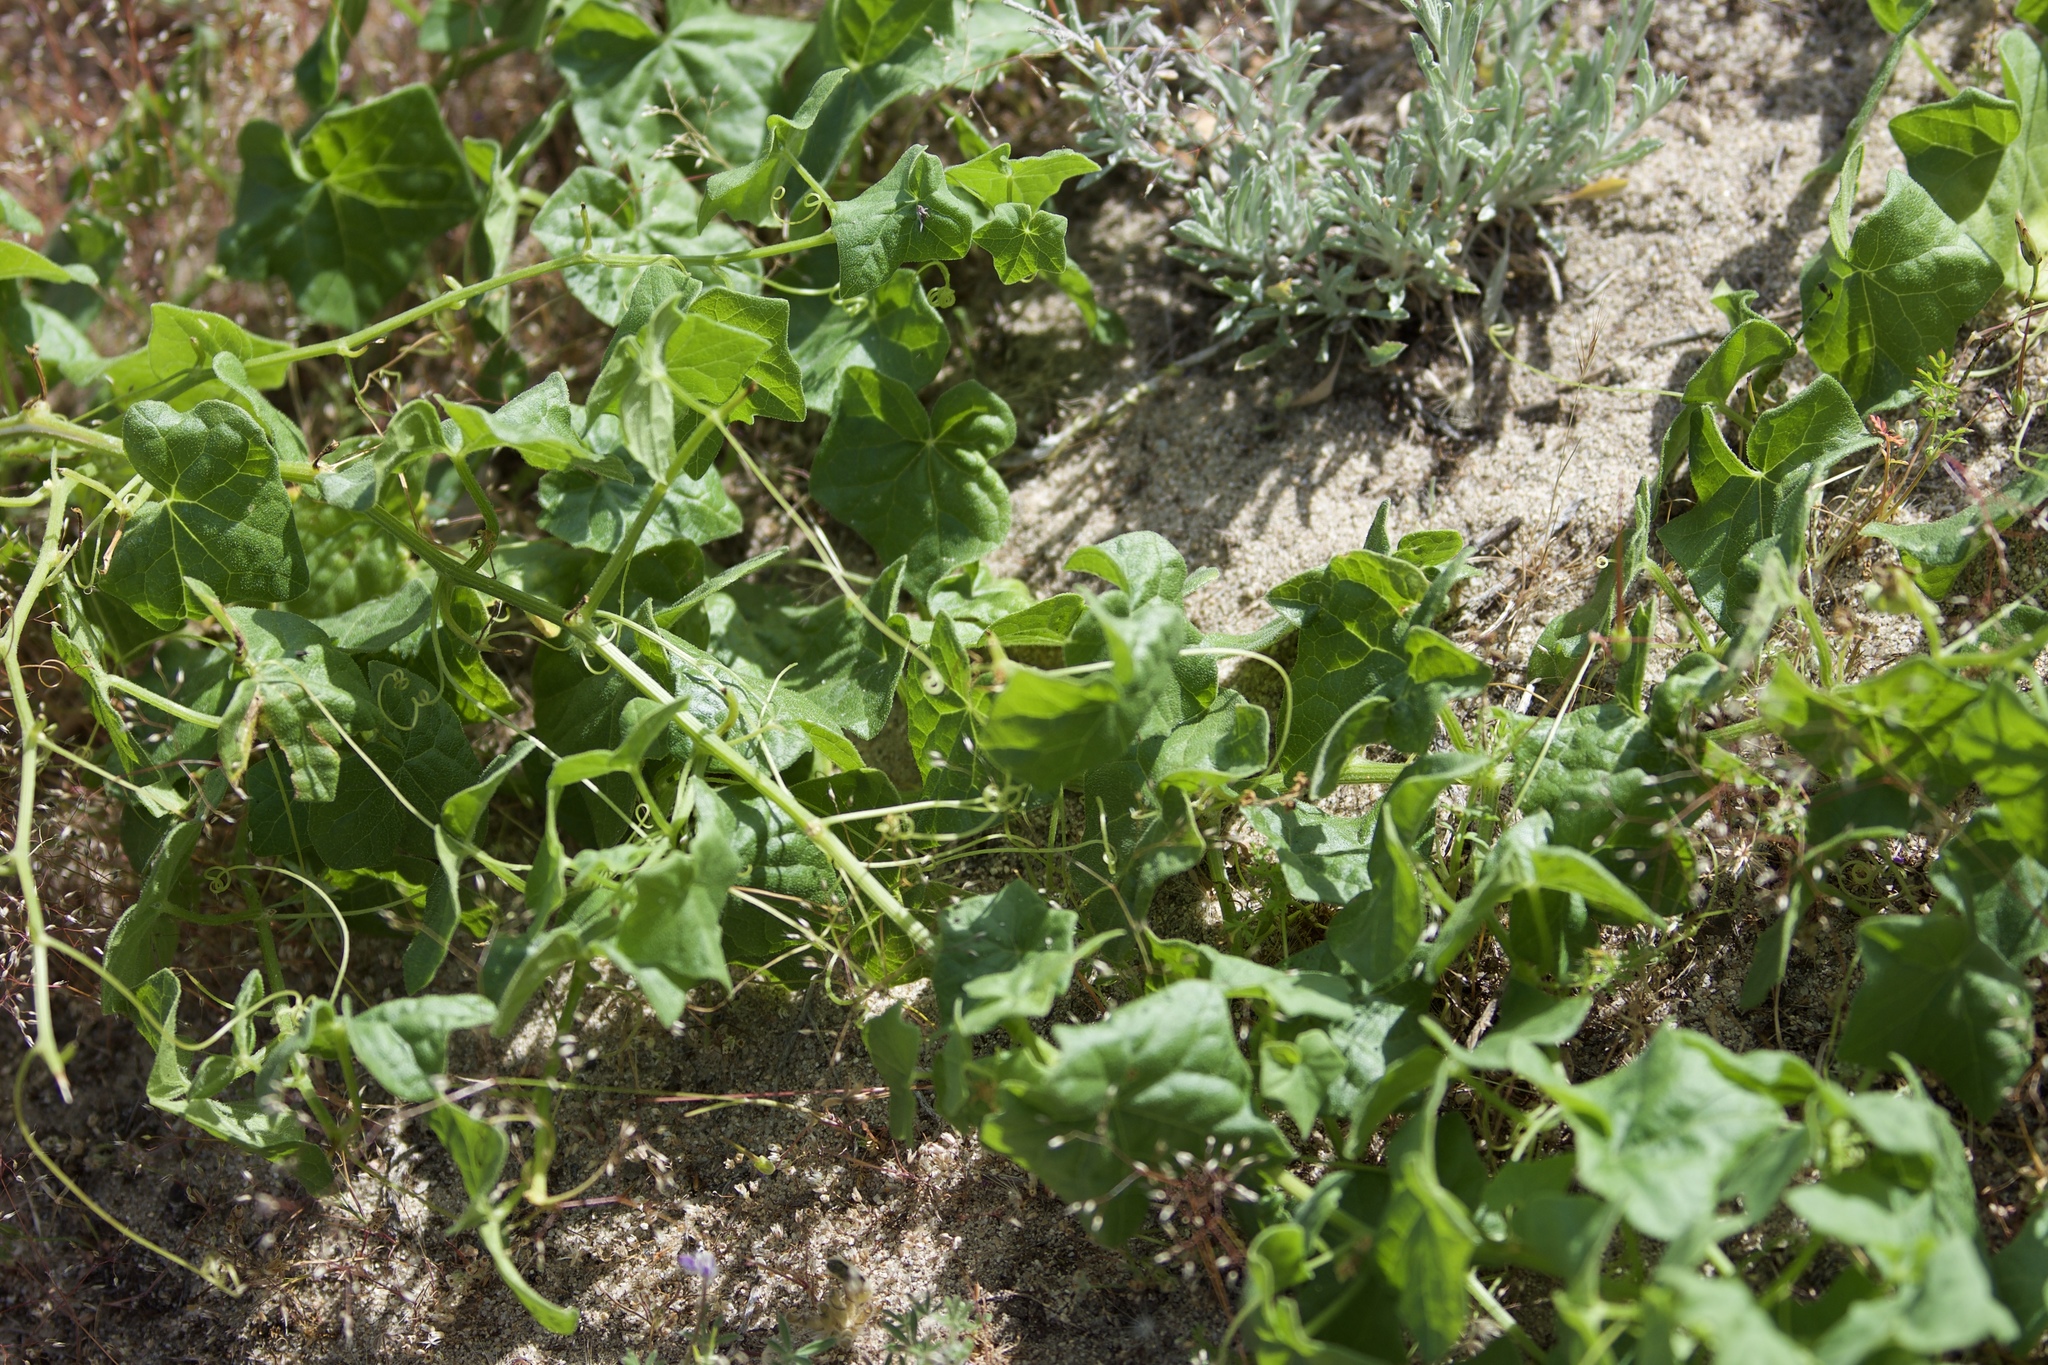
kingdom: Plantae
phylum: Tracheophyta
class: Magnoliopsida
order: Cucurbitales
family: Cucurbitaceae
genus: Marah
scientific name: Marah fabacea
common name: California manroot
